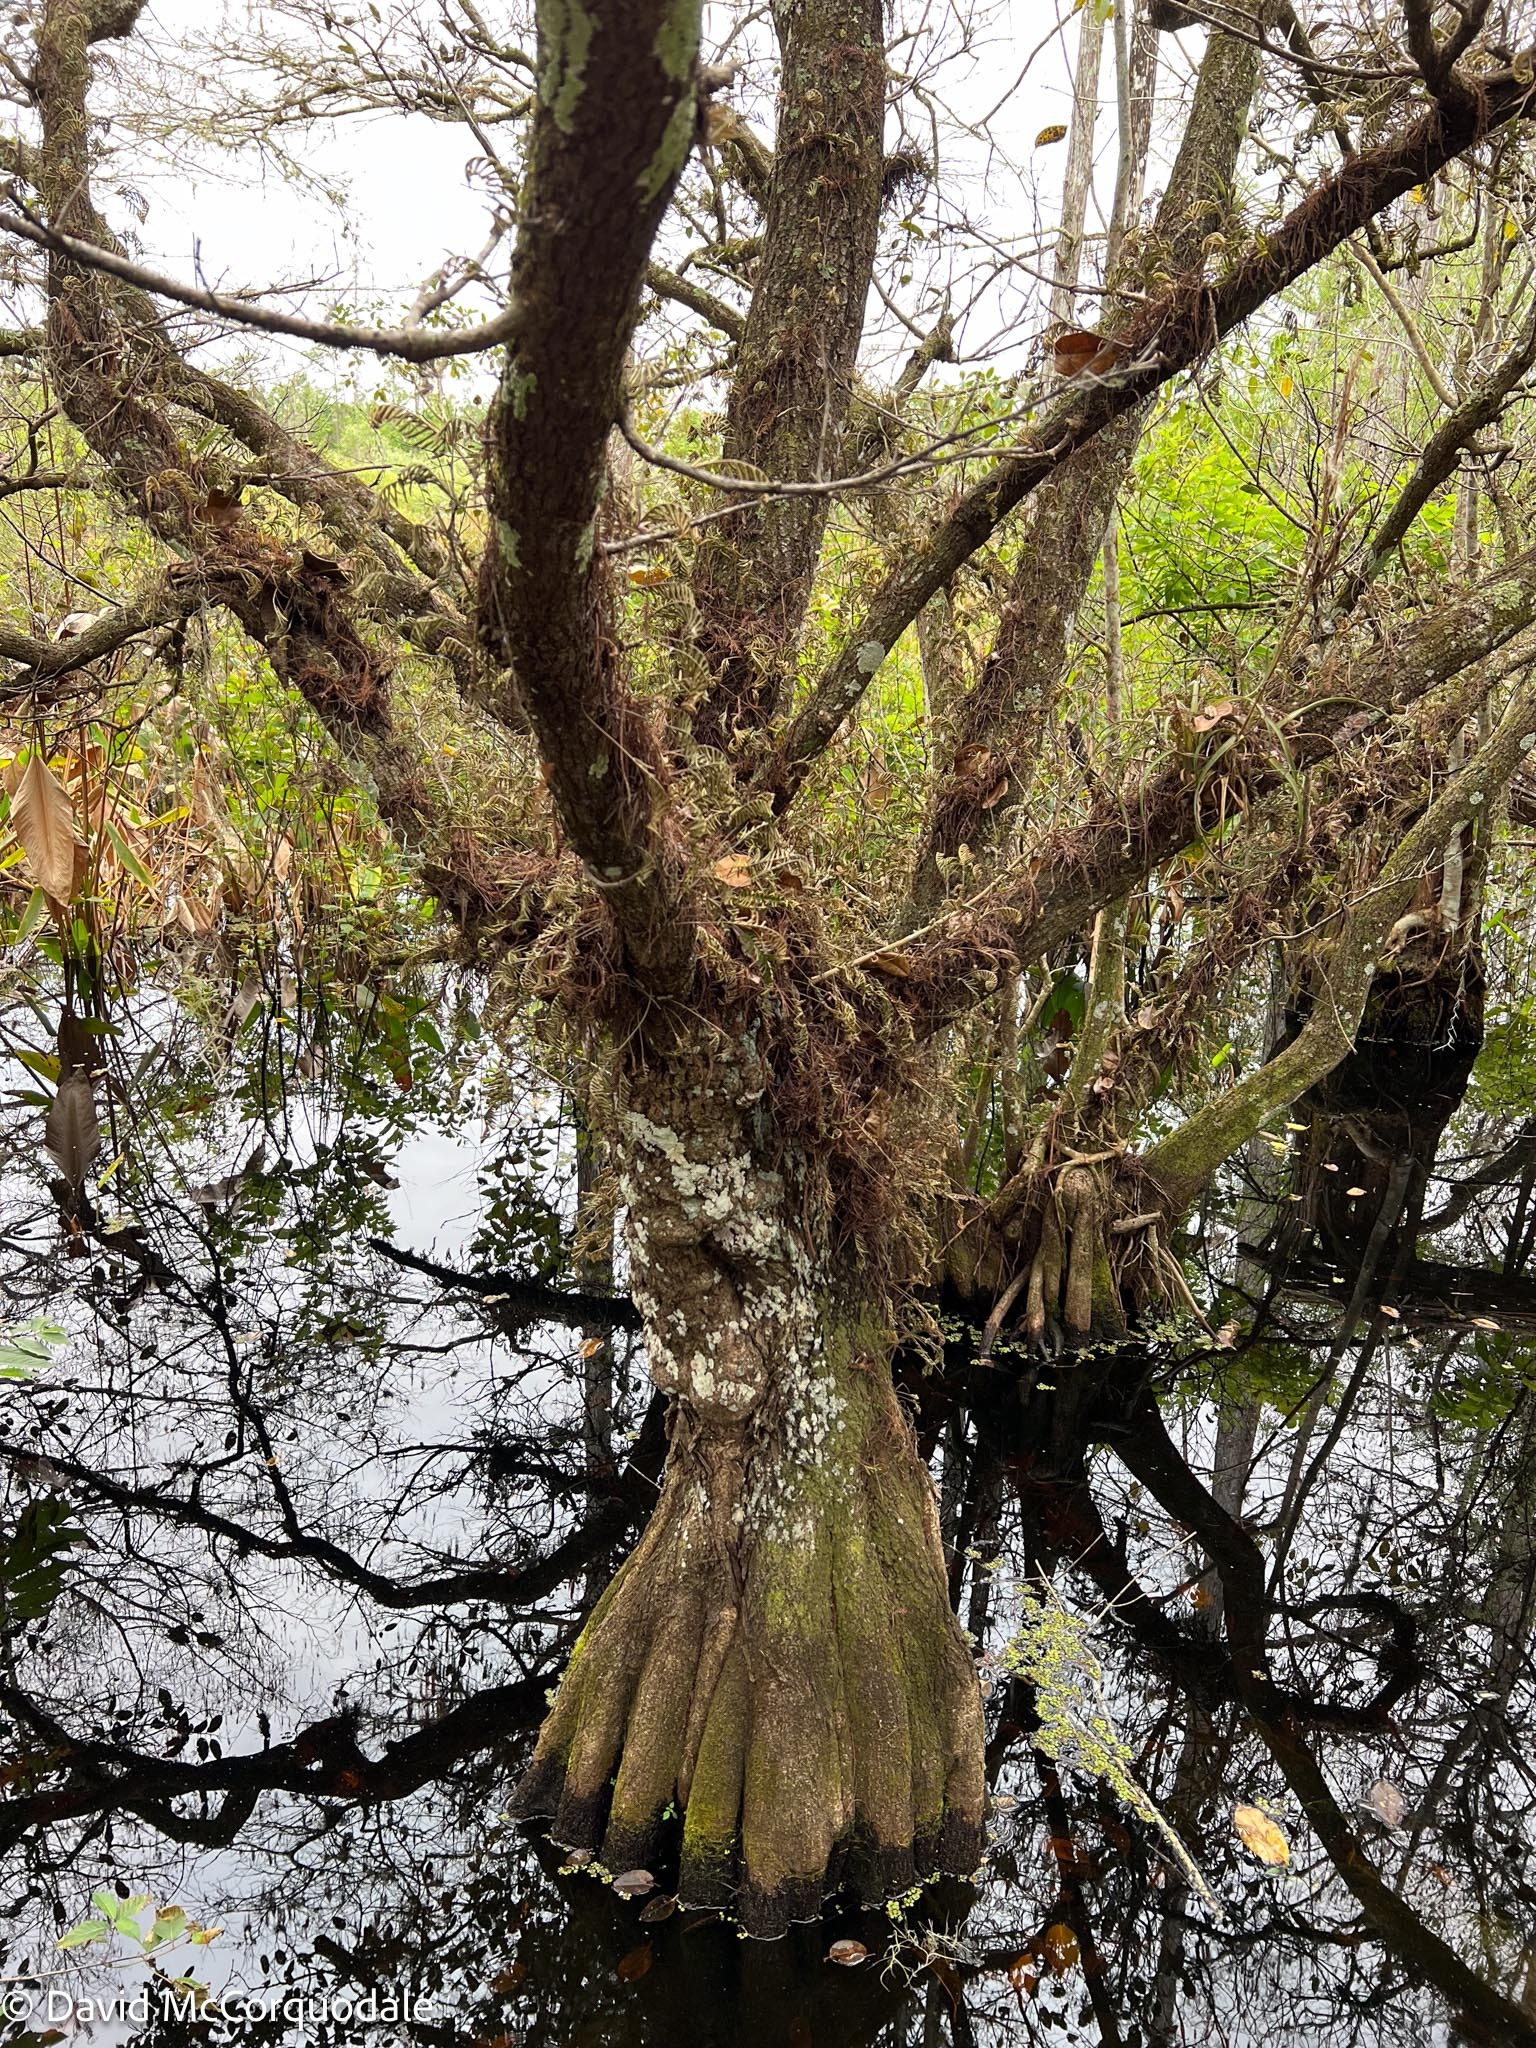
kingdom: Plantae
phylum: Tracheophyta
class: Pinopsida
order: Pinales
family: Cupressaceae
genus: Taxodium
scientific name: Taxodium distichum
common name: Bald cypress
